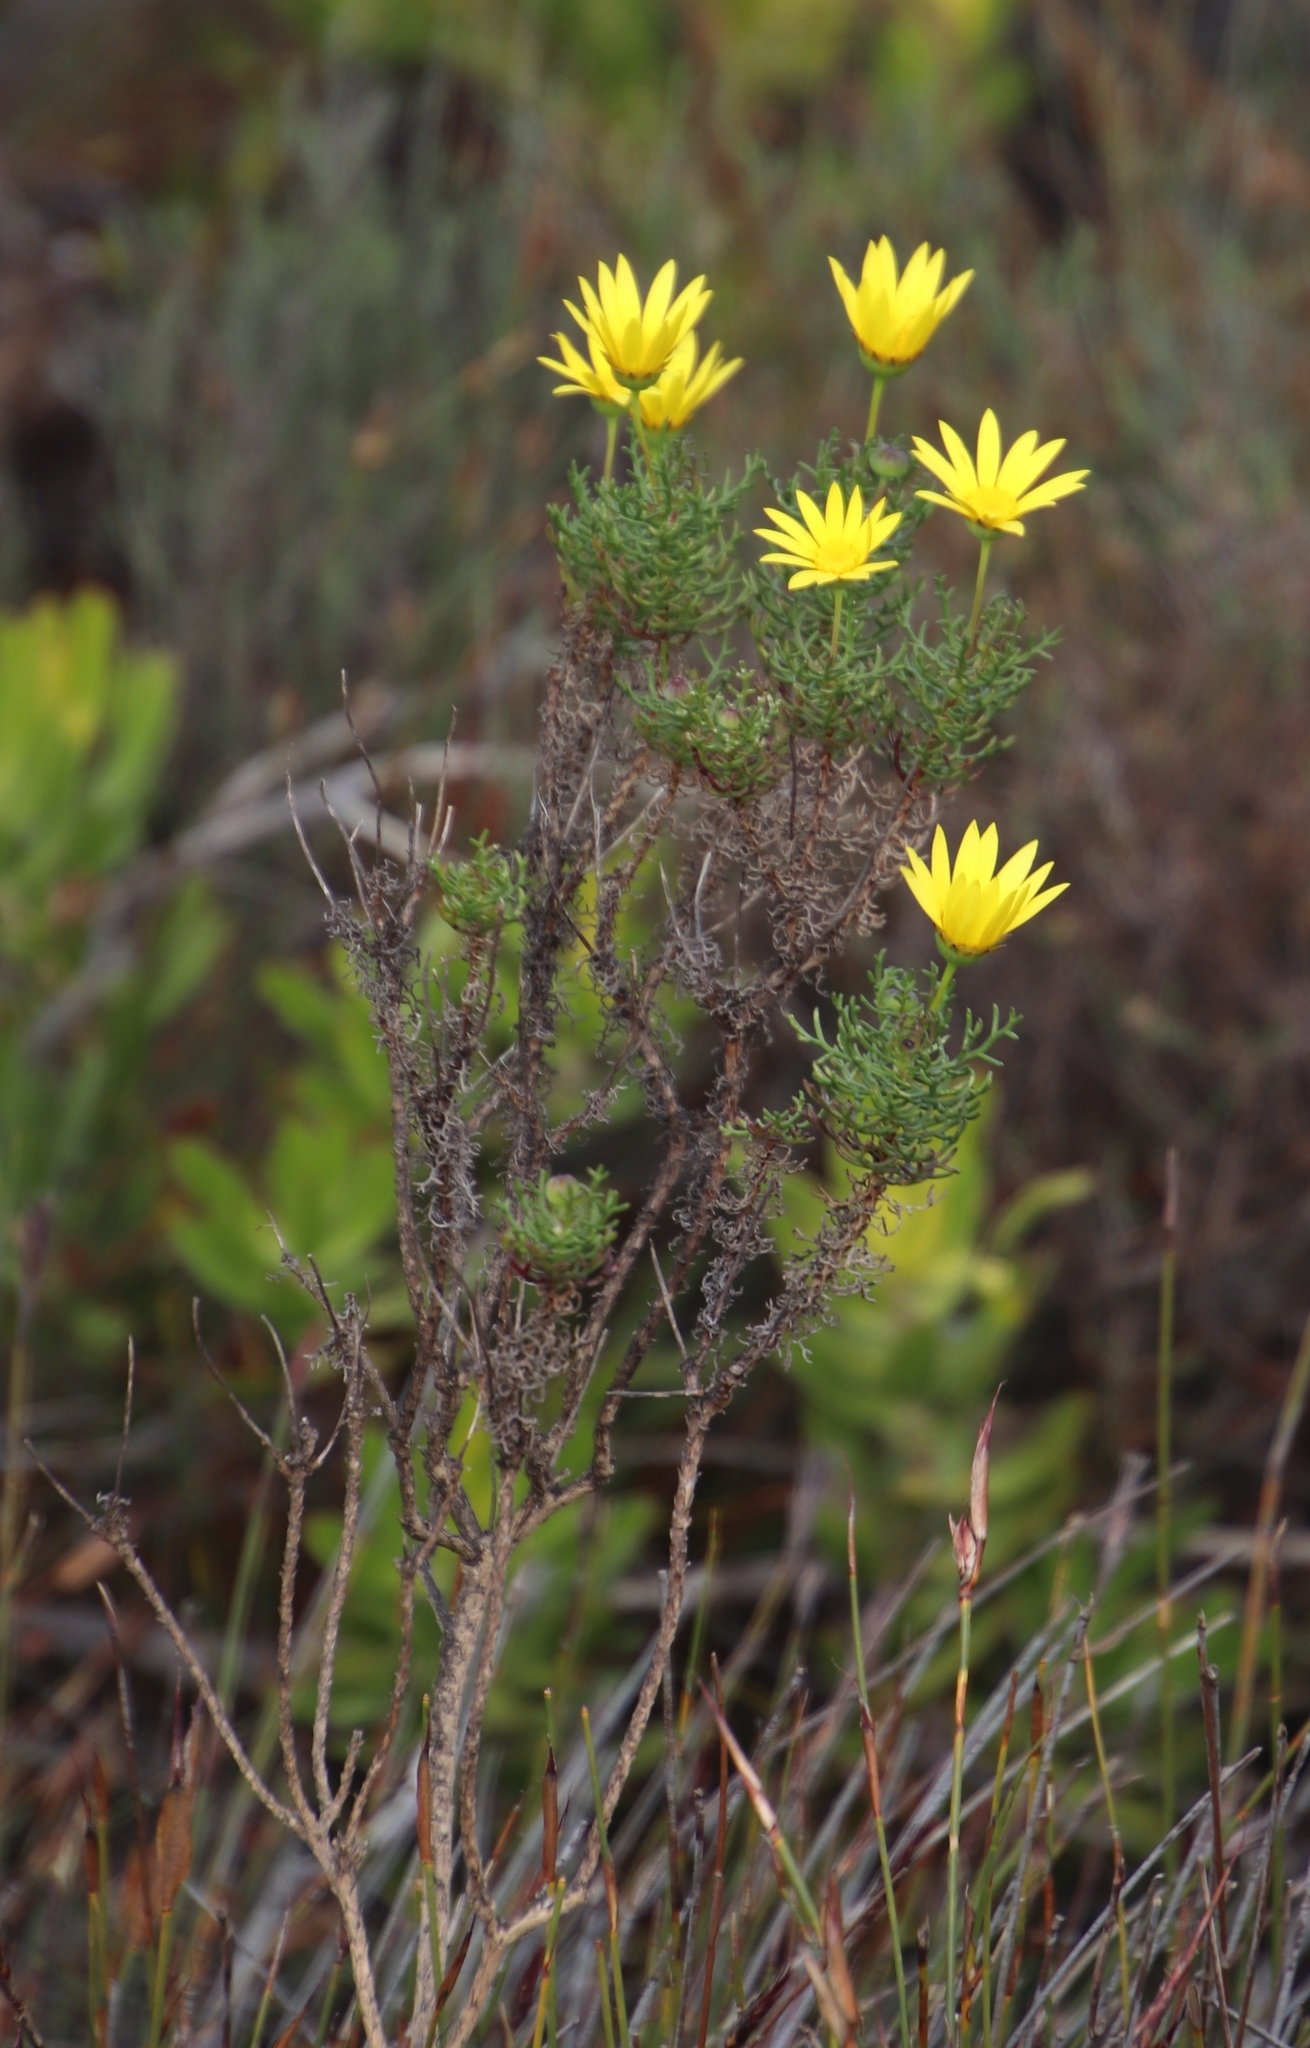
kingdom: Plantae
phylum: Tracheophyta
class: Magnoliopsida
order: Asterales
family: Asteraceae
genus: Euryops
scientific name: Euryops abrotanifolius
